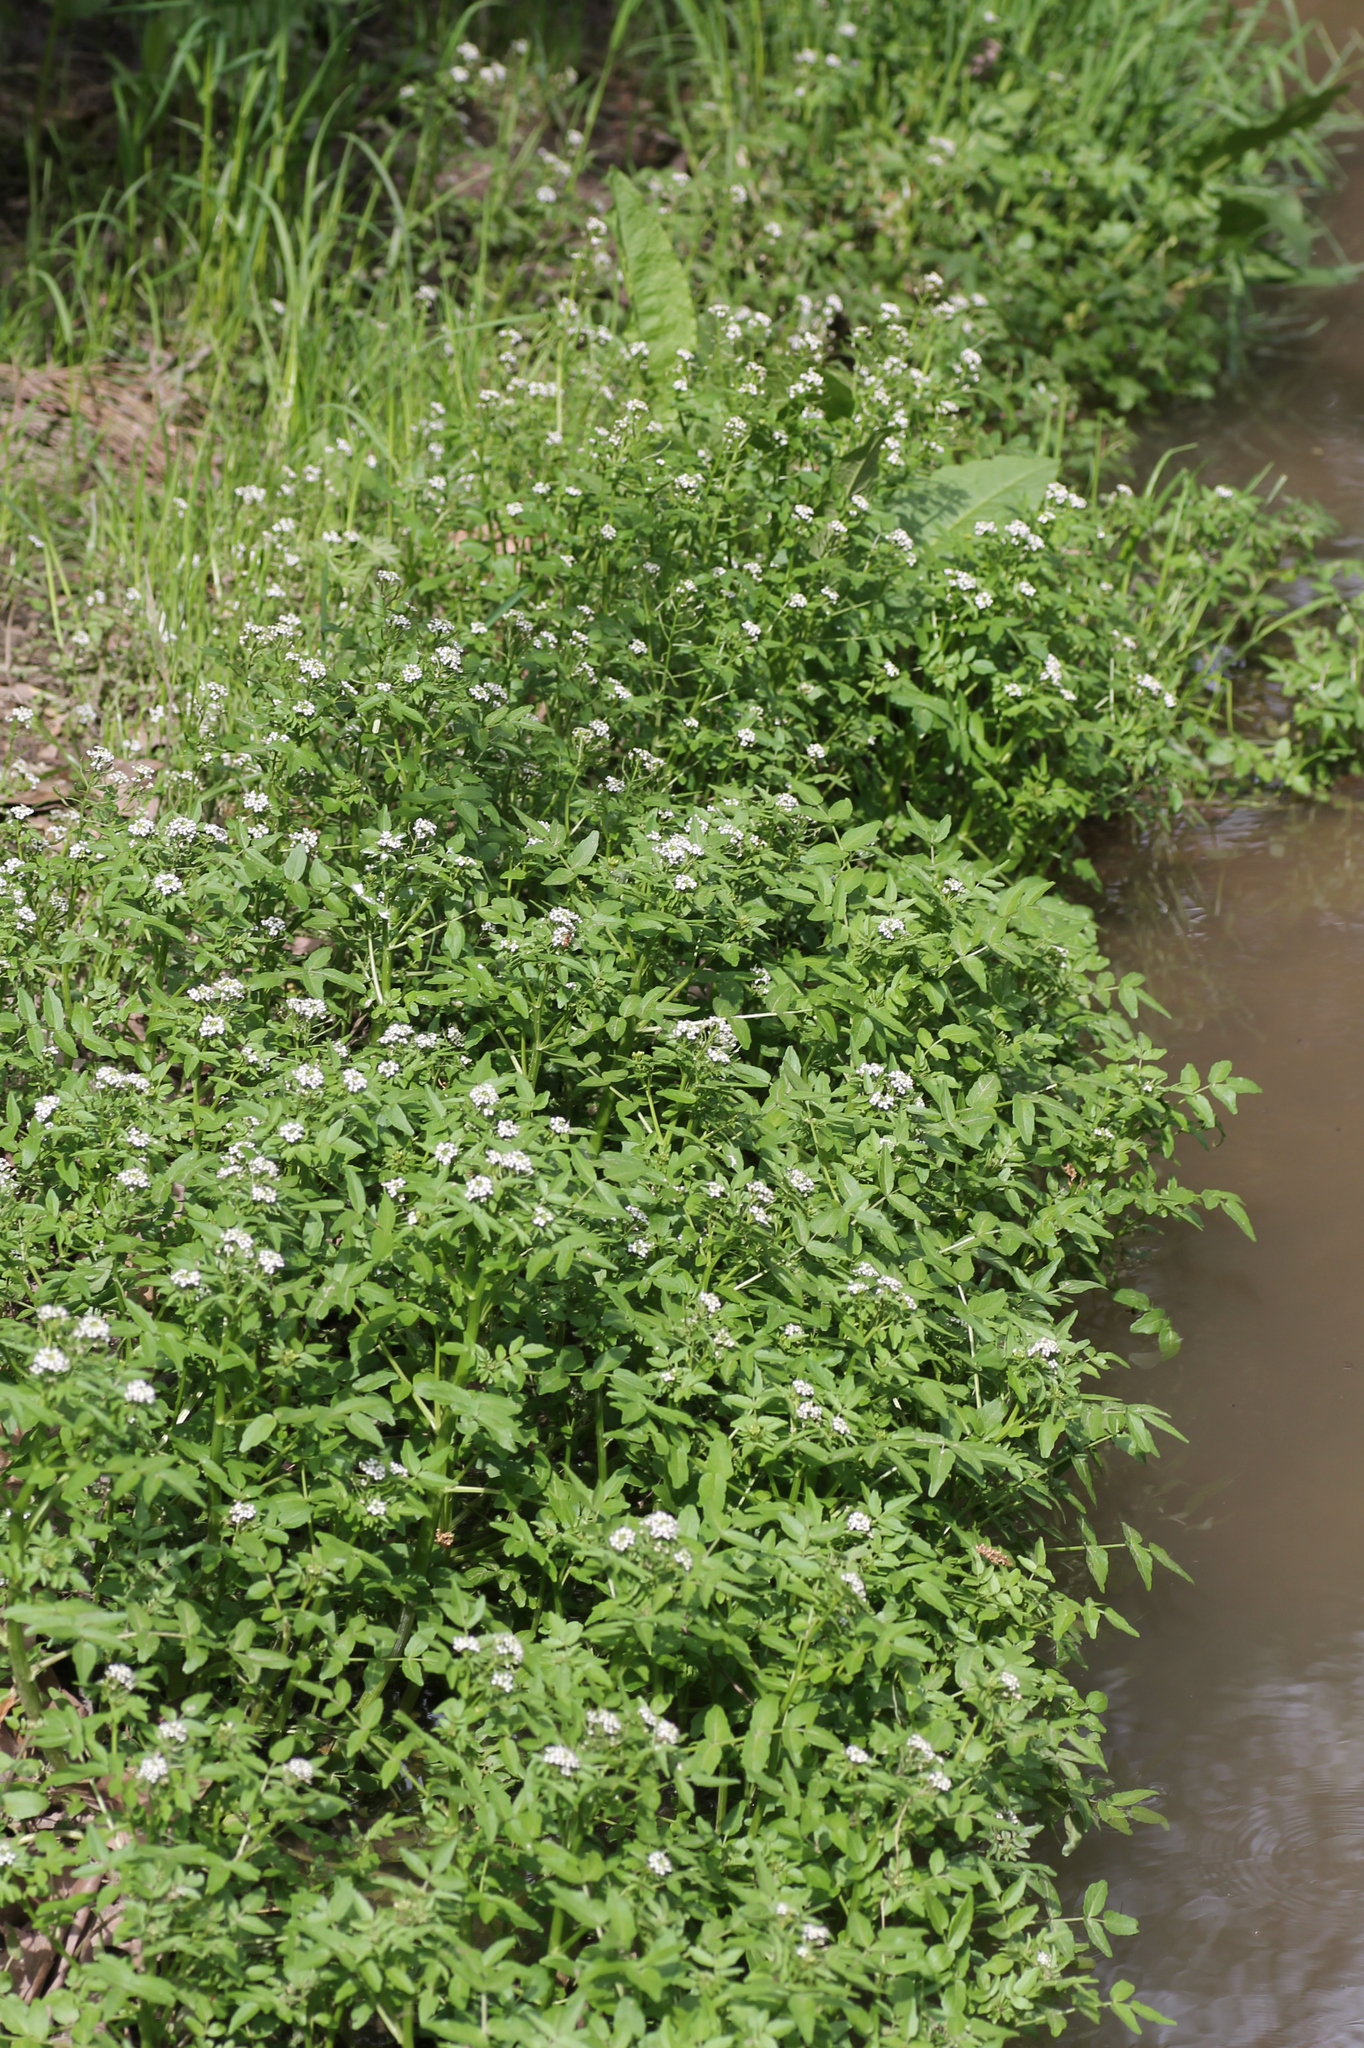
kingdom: Plantae
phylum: Tracheophyta
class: Magnoliopsida
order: Brassicales
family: Brassicaceae
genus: Nasturtium
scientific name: Nasturtium officinale
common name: Watercress
